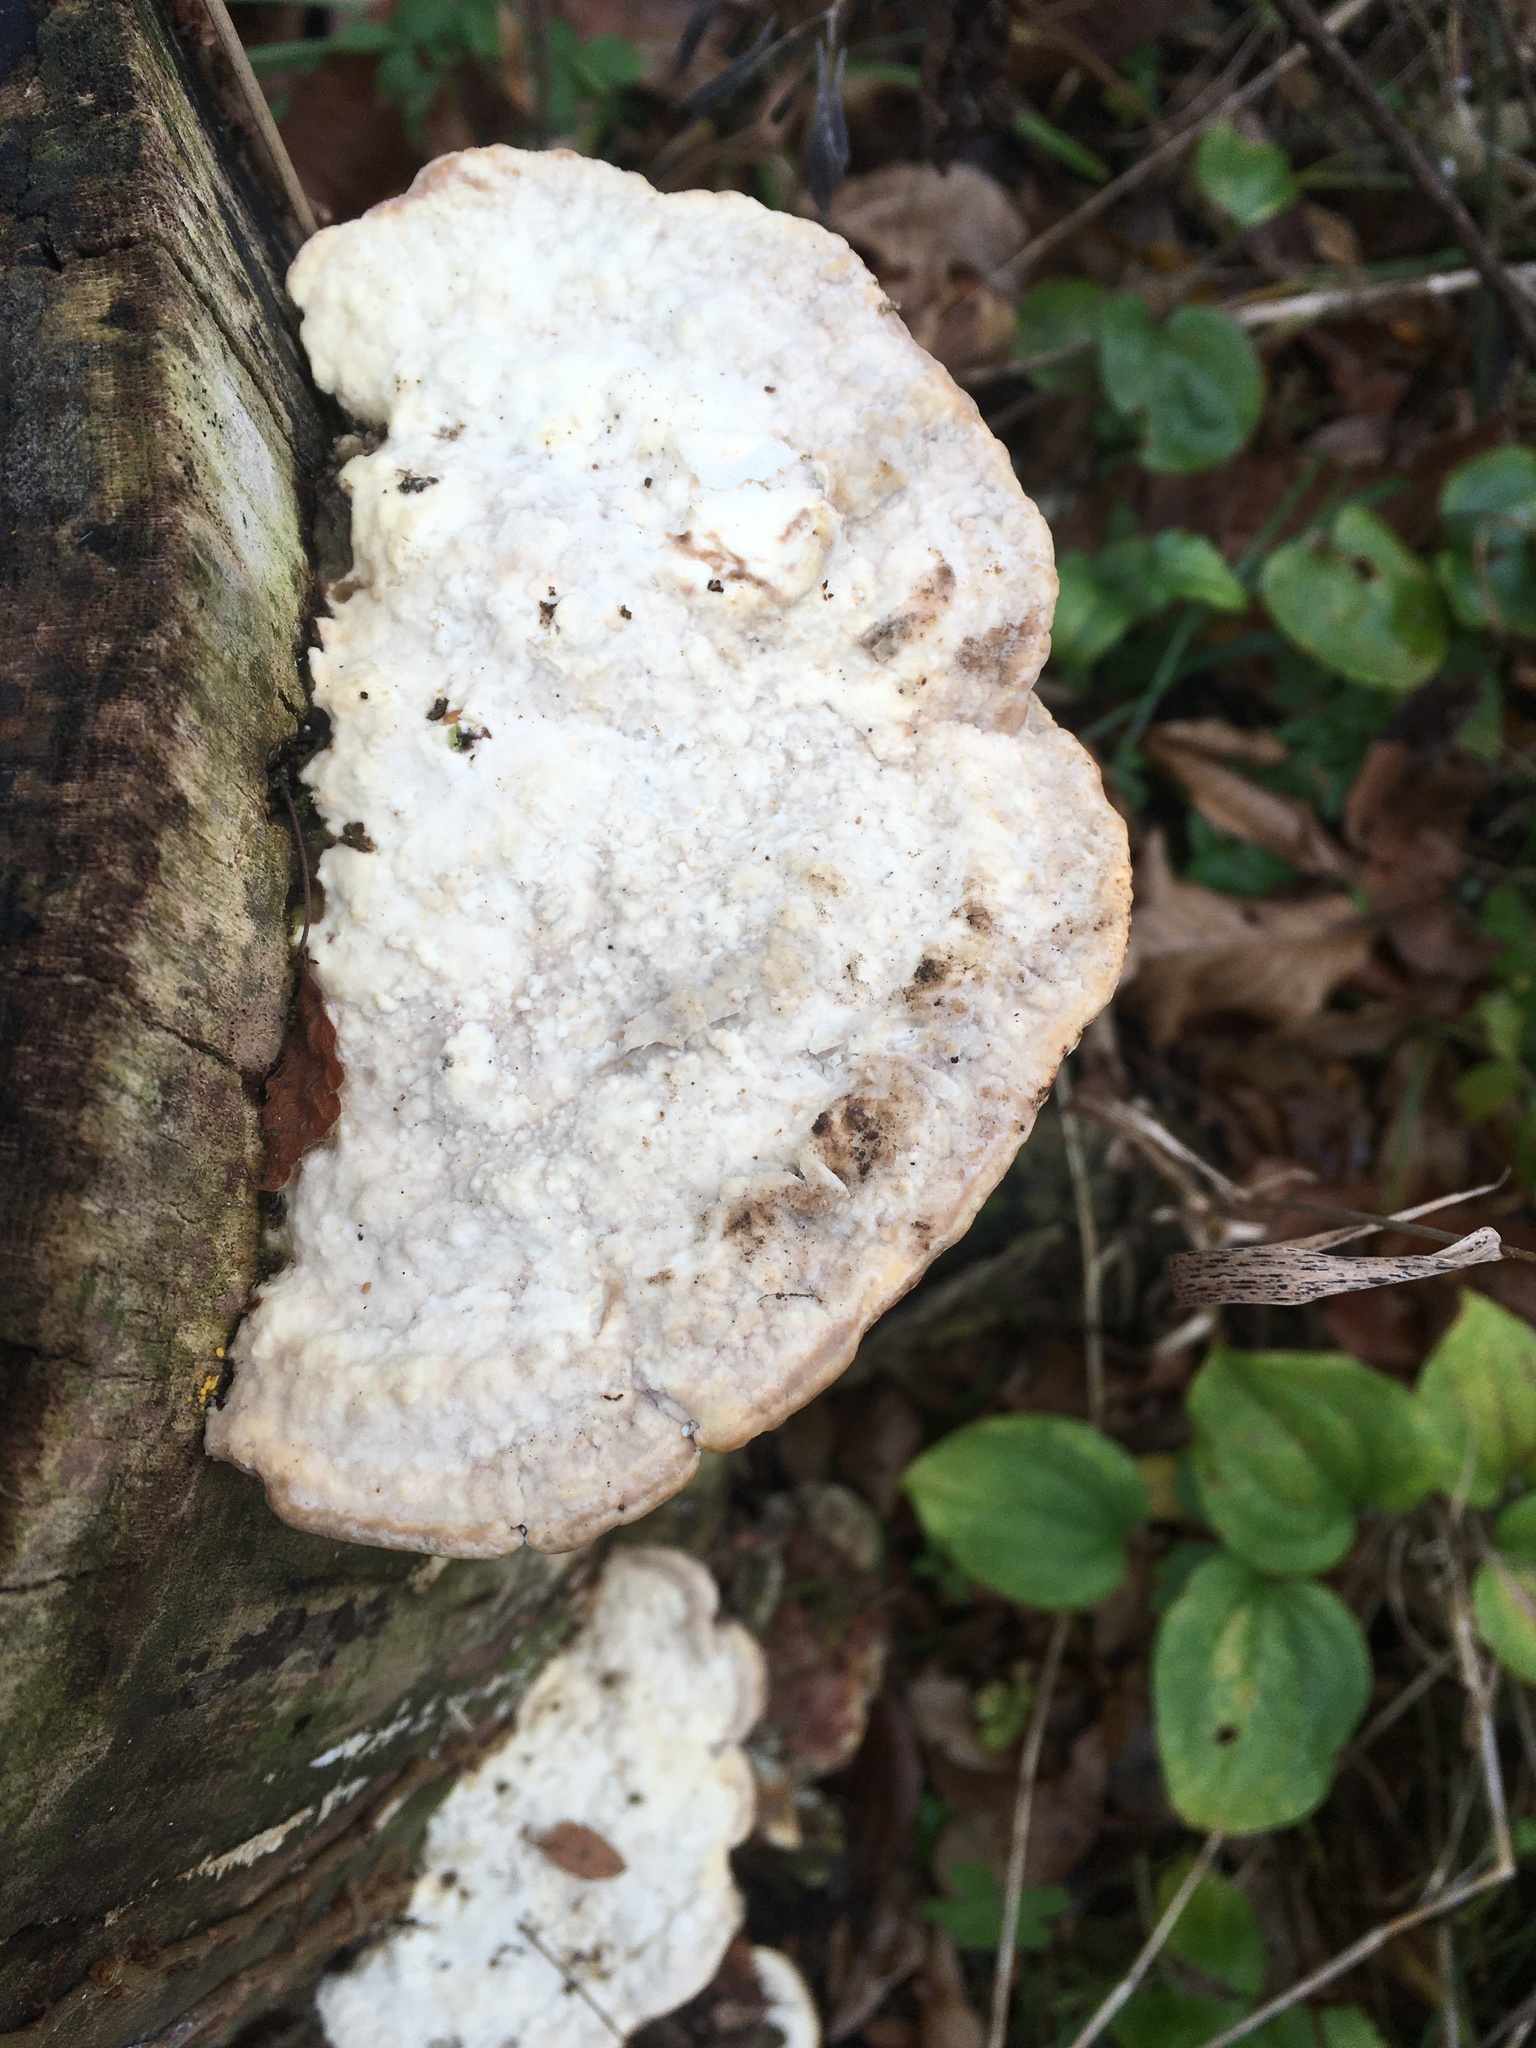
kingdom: Fungi
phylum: Basidiomycota
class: Agaricomycetes
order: Polyporales
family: Polyporaceae
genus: Trametes
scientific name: Trametes gibbosa
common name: Lumpy bracket
